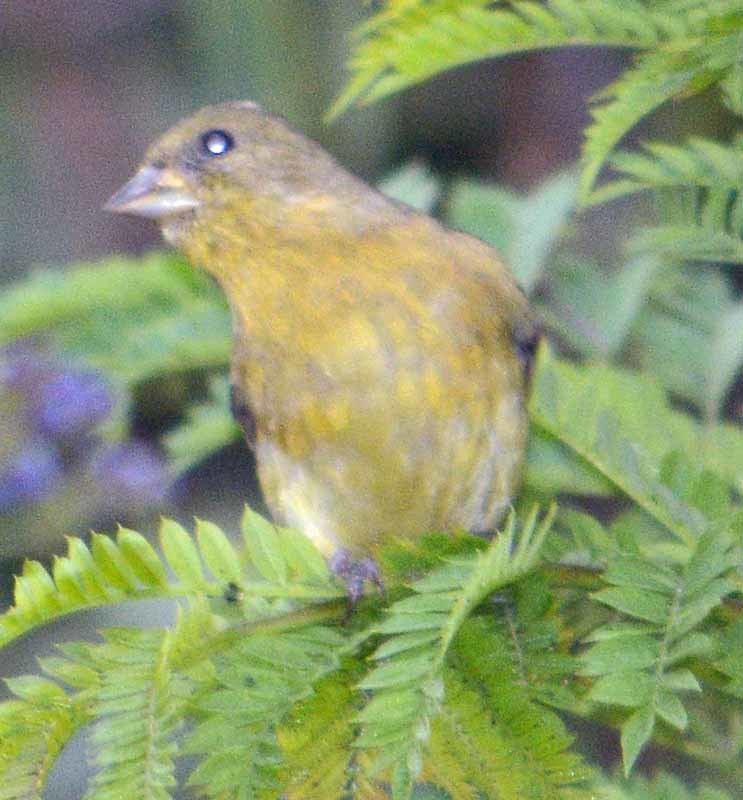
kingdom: Animalia
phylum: Chordata
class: Aves
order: Passeriformes
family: Fringillidae
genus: Spinus
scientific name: Spinus psaltria
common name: Lesser goldfinch
